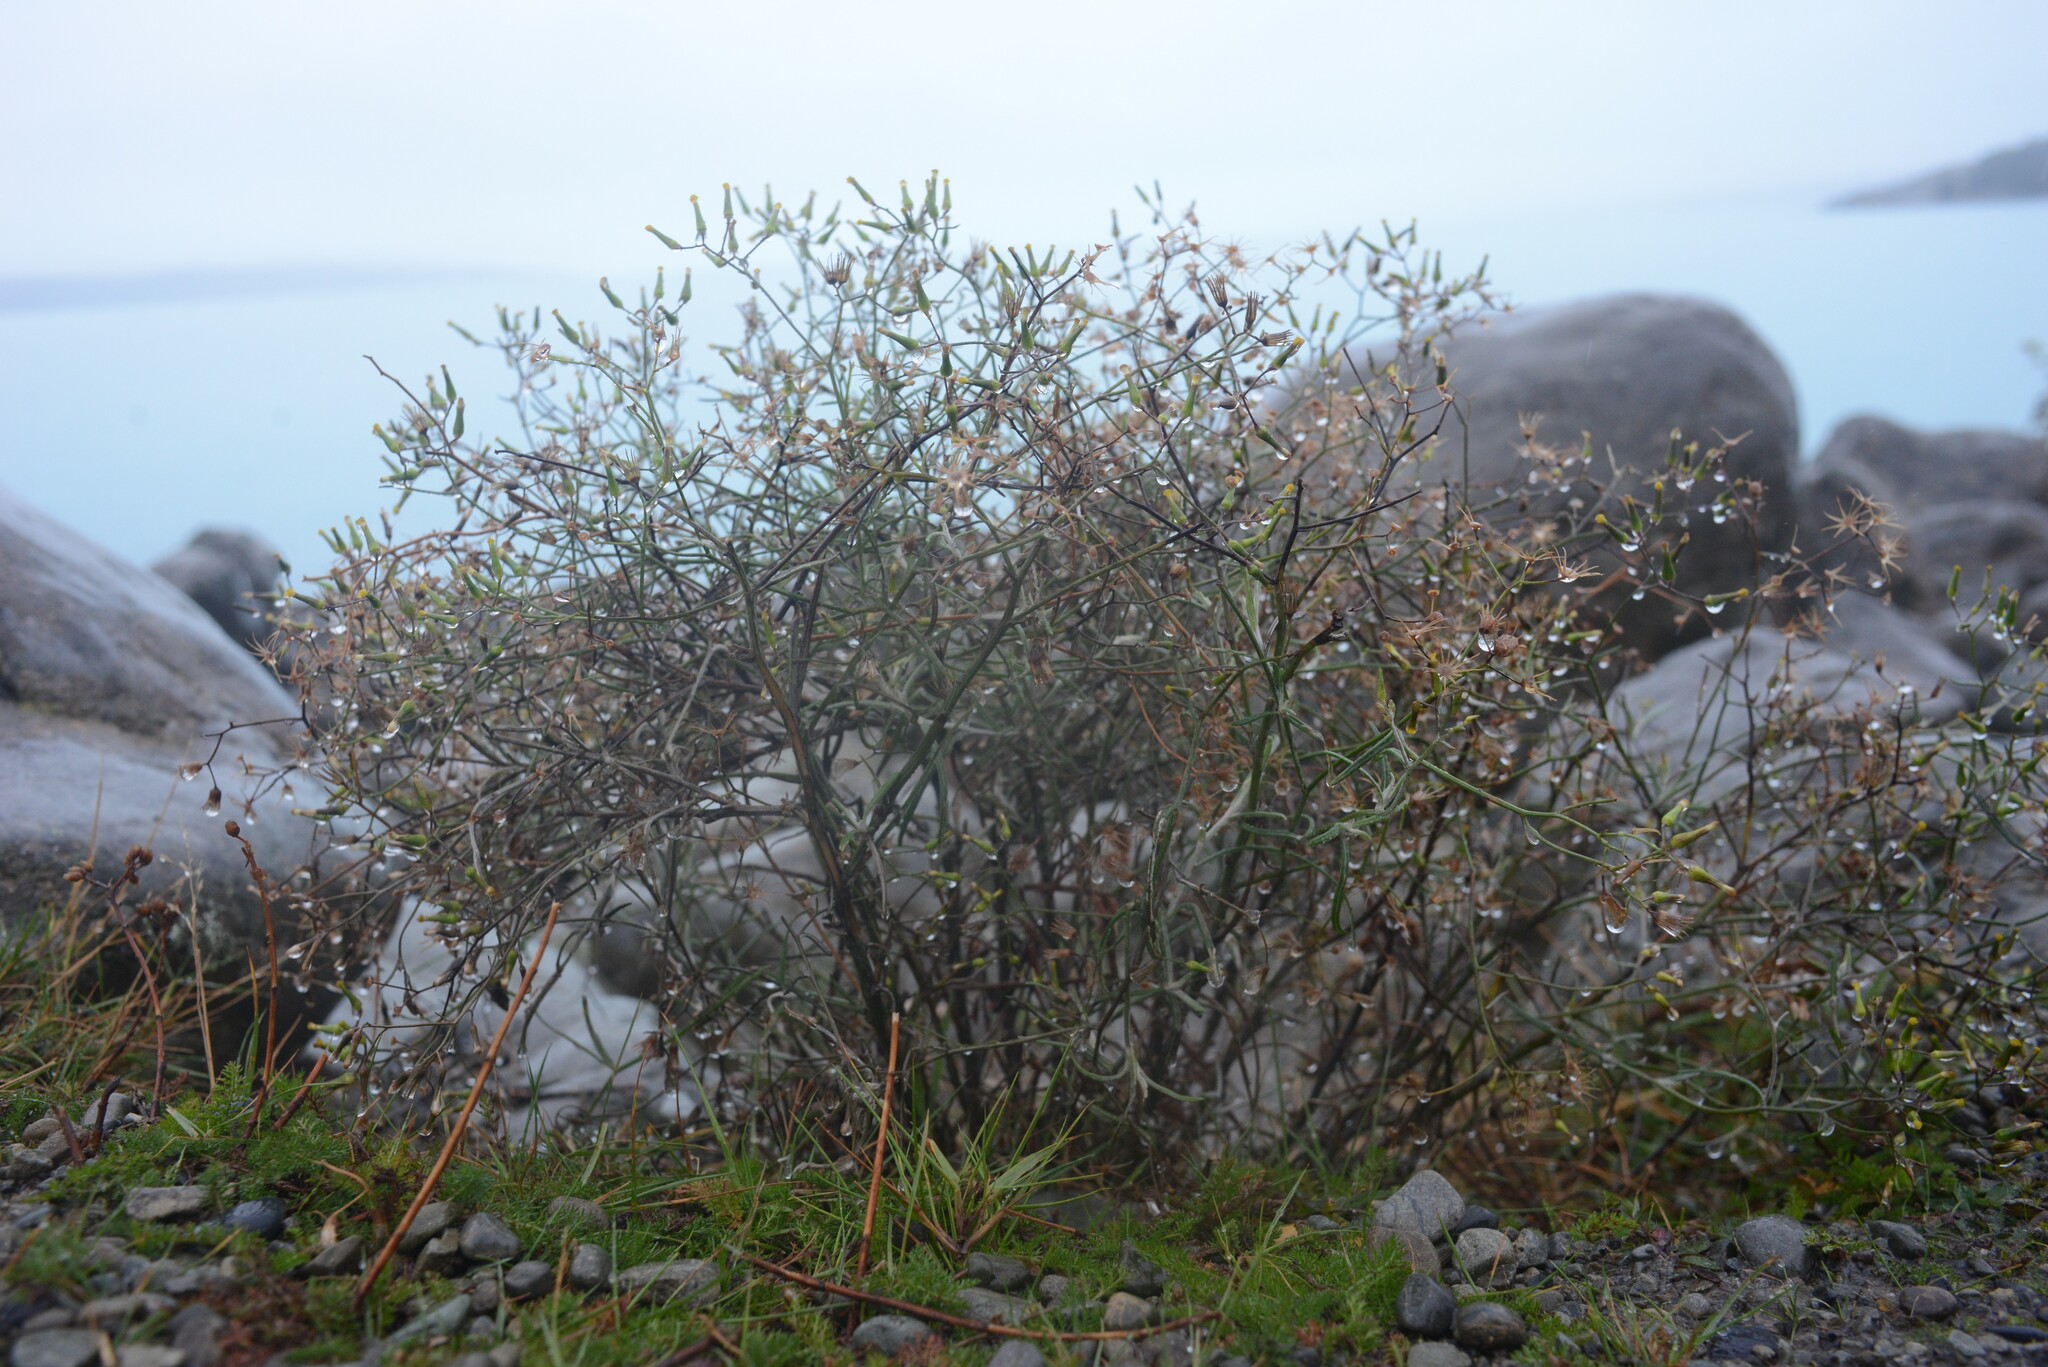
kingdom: Plantae
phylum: Tracheophyta
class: Magnoliopsida
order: Asterales
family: Asteraceae
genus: Senecio
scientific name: Senecio quadridentatus
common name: Cotton fireweed
